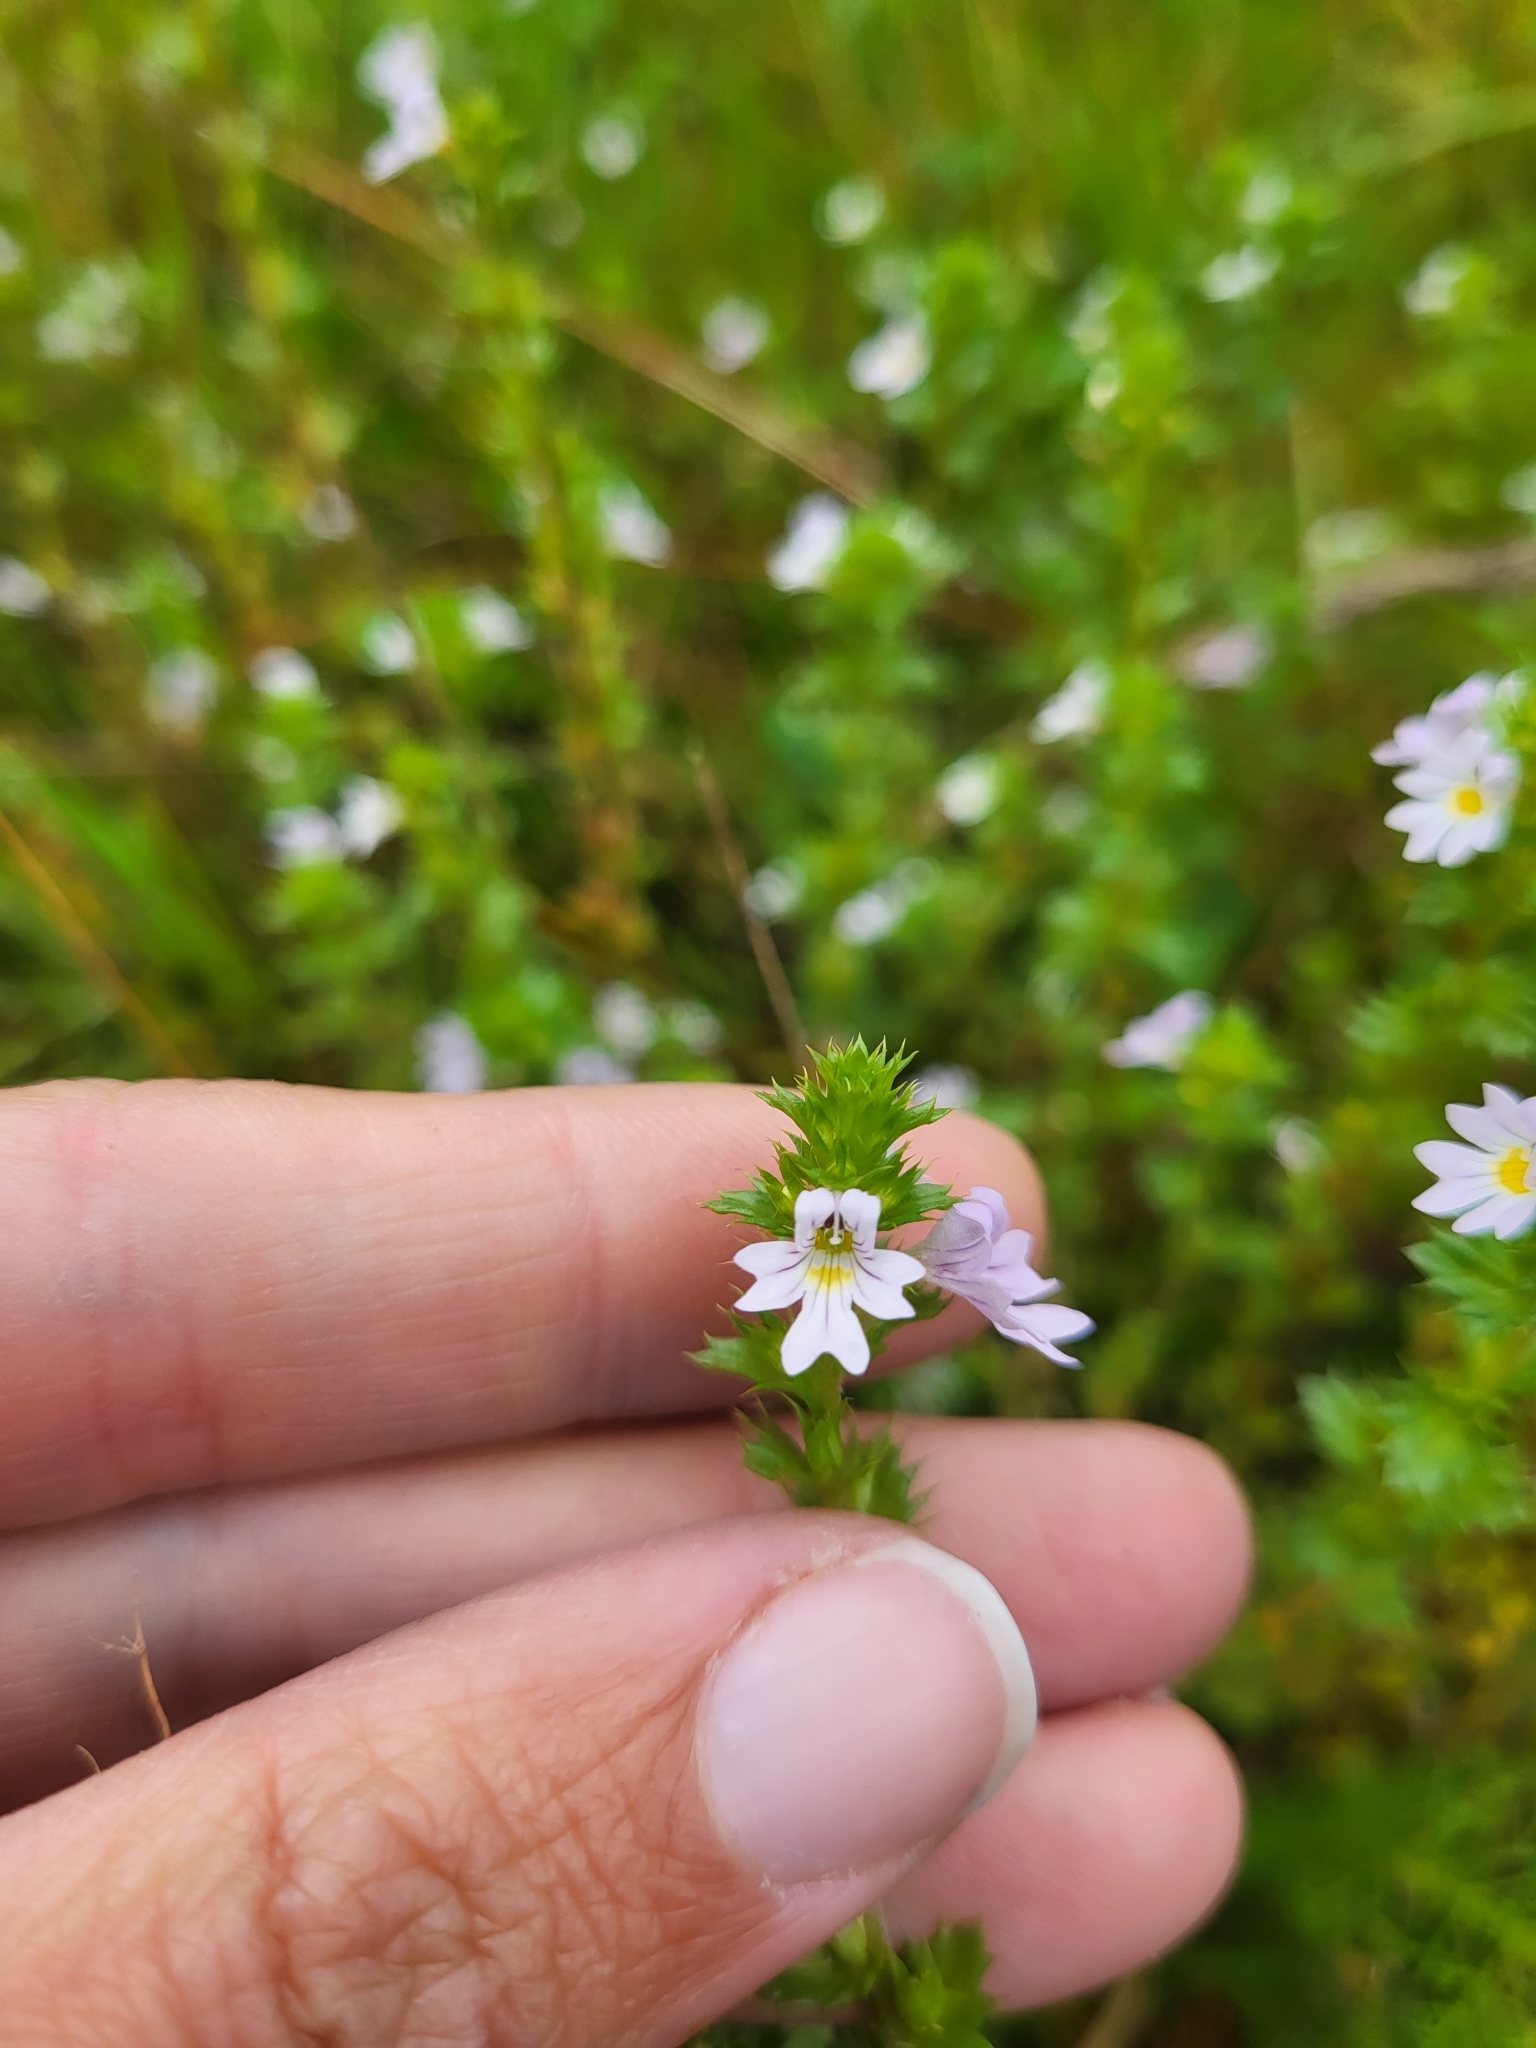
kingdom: Plantae
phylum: Tracheophyta
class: Magnoliopsida
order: Lamiales
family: Orobanchaceae
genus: Euphrasia
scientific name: Euphrasia nemorosa
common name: Common eyebright
